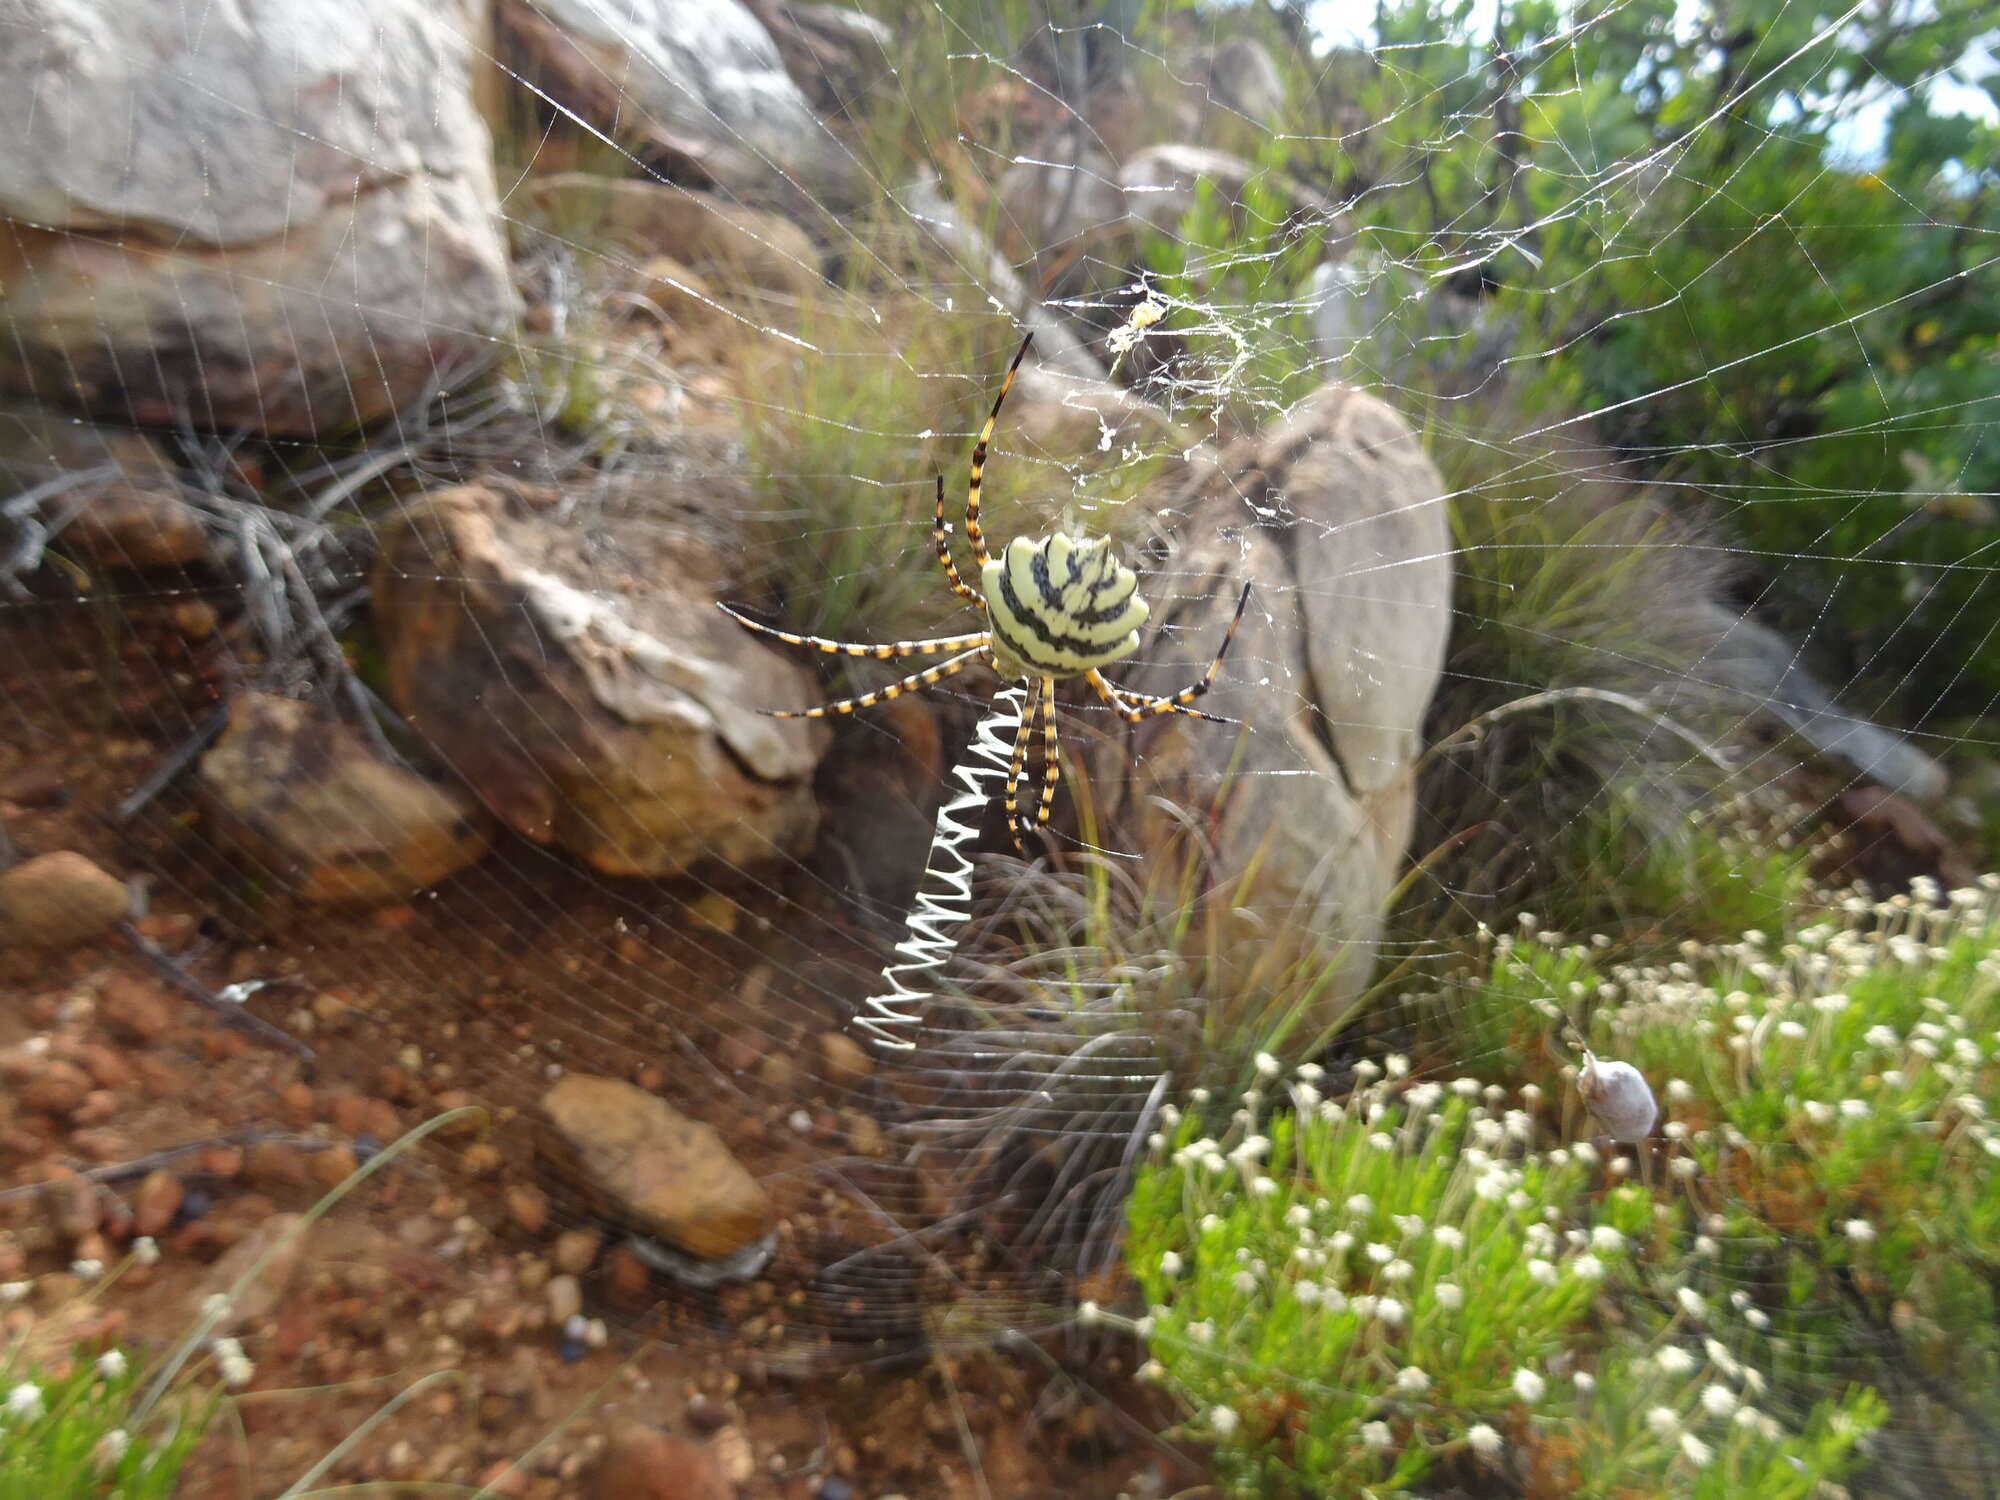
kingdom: Animalia
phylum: Arthropoda
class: Arachnida
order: Araneae
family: Araneidae
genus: Argiope
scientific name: Argiope australis
